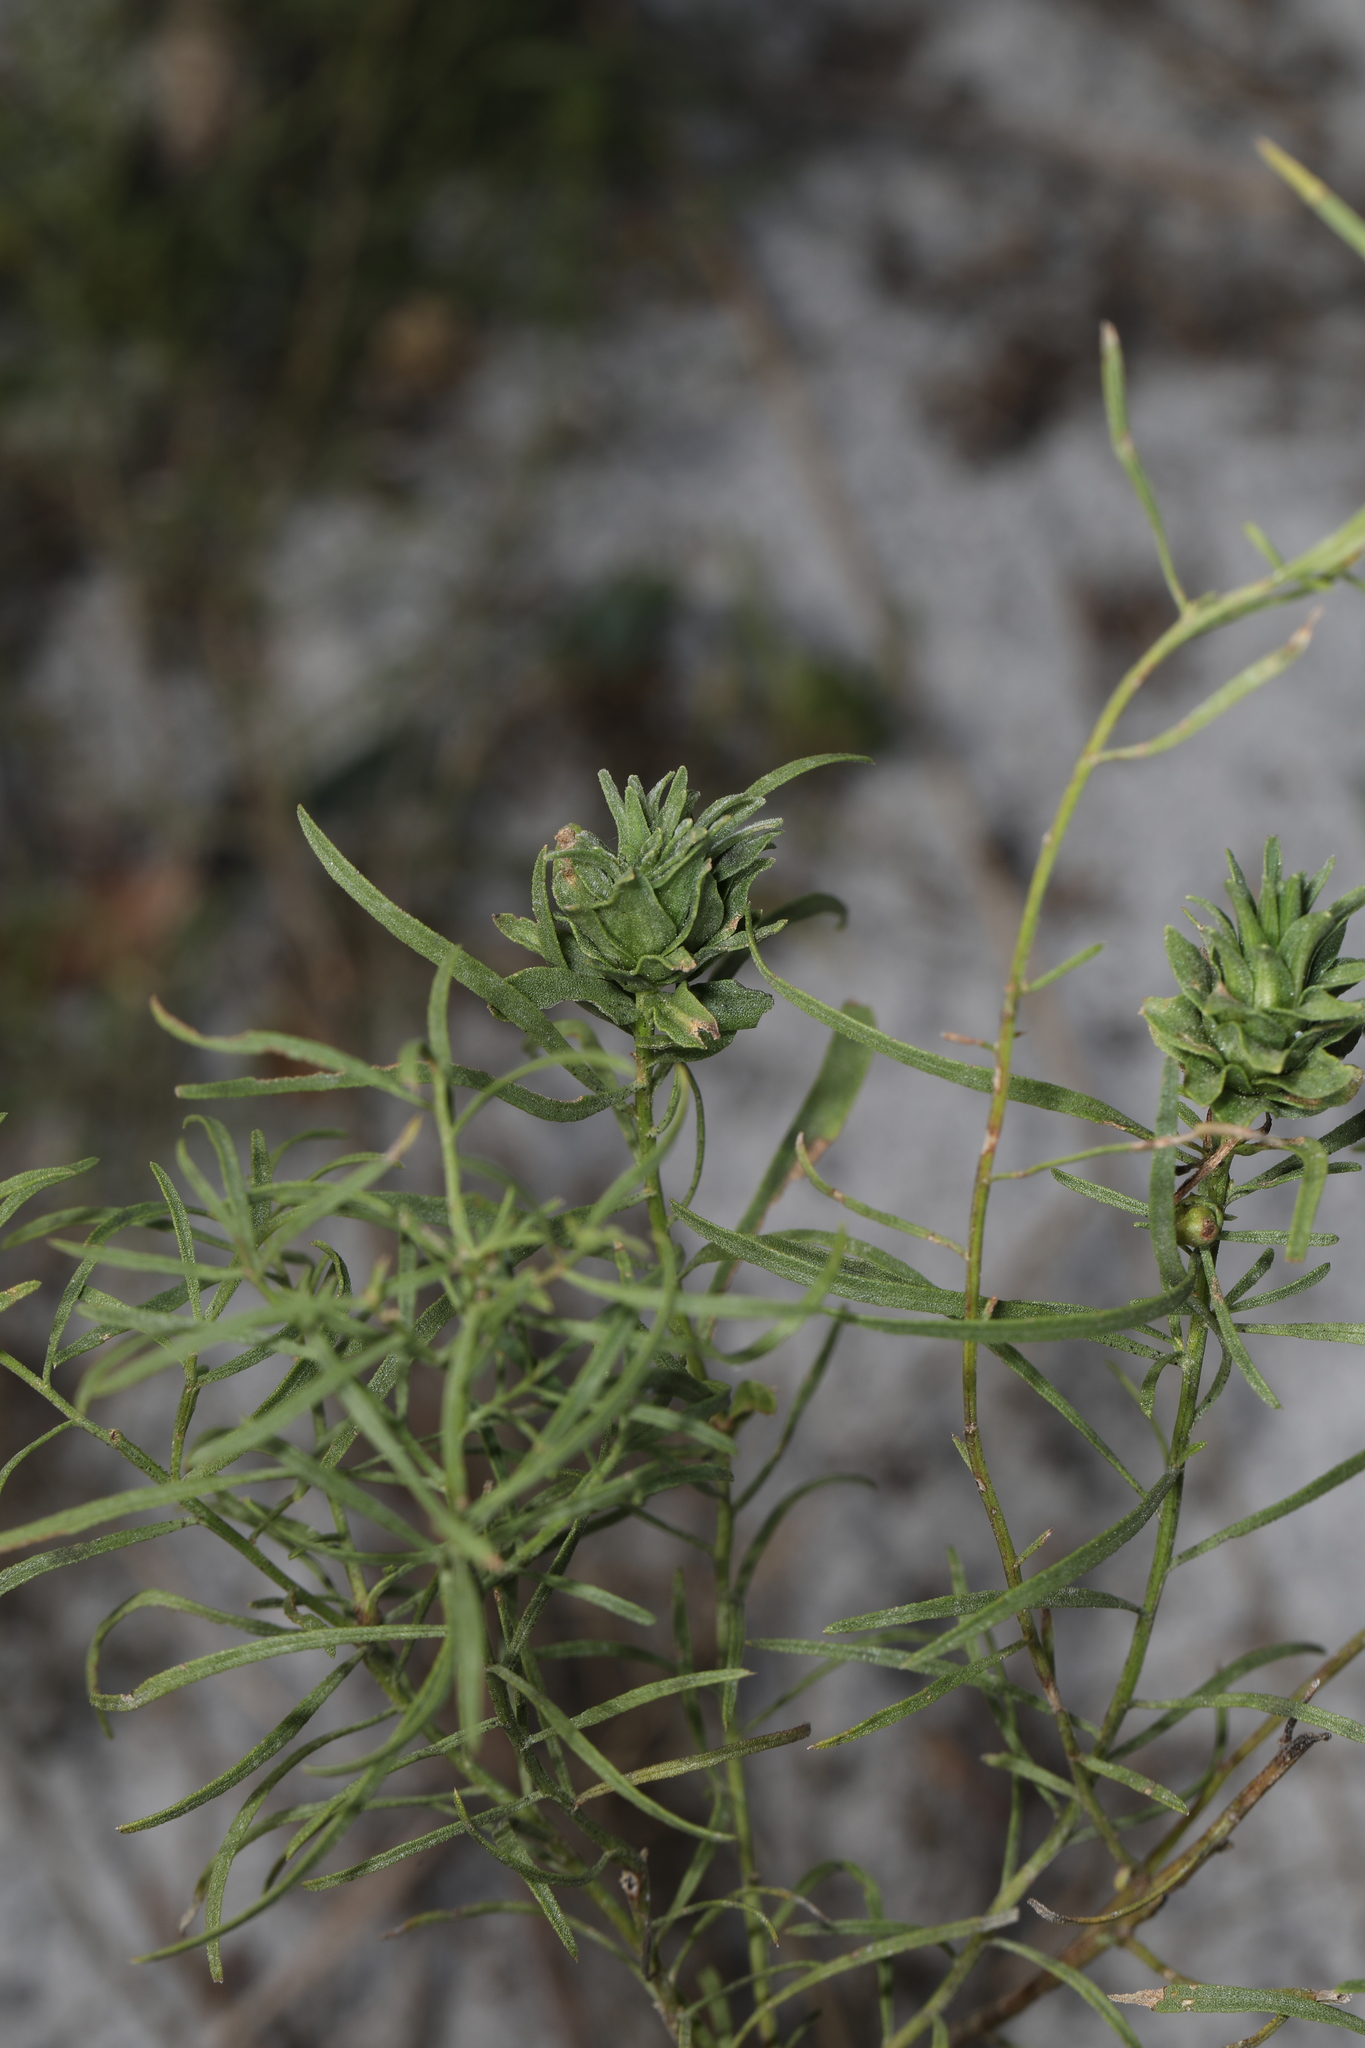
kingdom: Plantae
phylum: Tracheophyta
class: Magnoliopsida
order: Asterales
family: Asteraceae
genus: Euthamia
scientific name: Euthamia caroliniana
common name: Coastal plain goldentop
